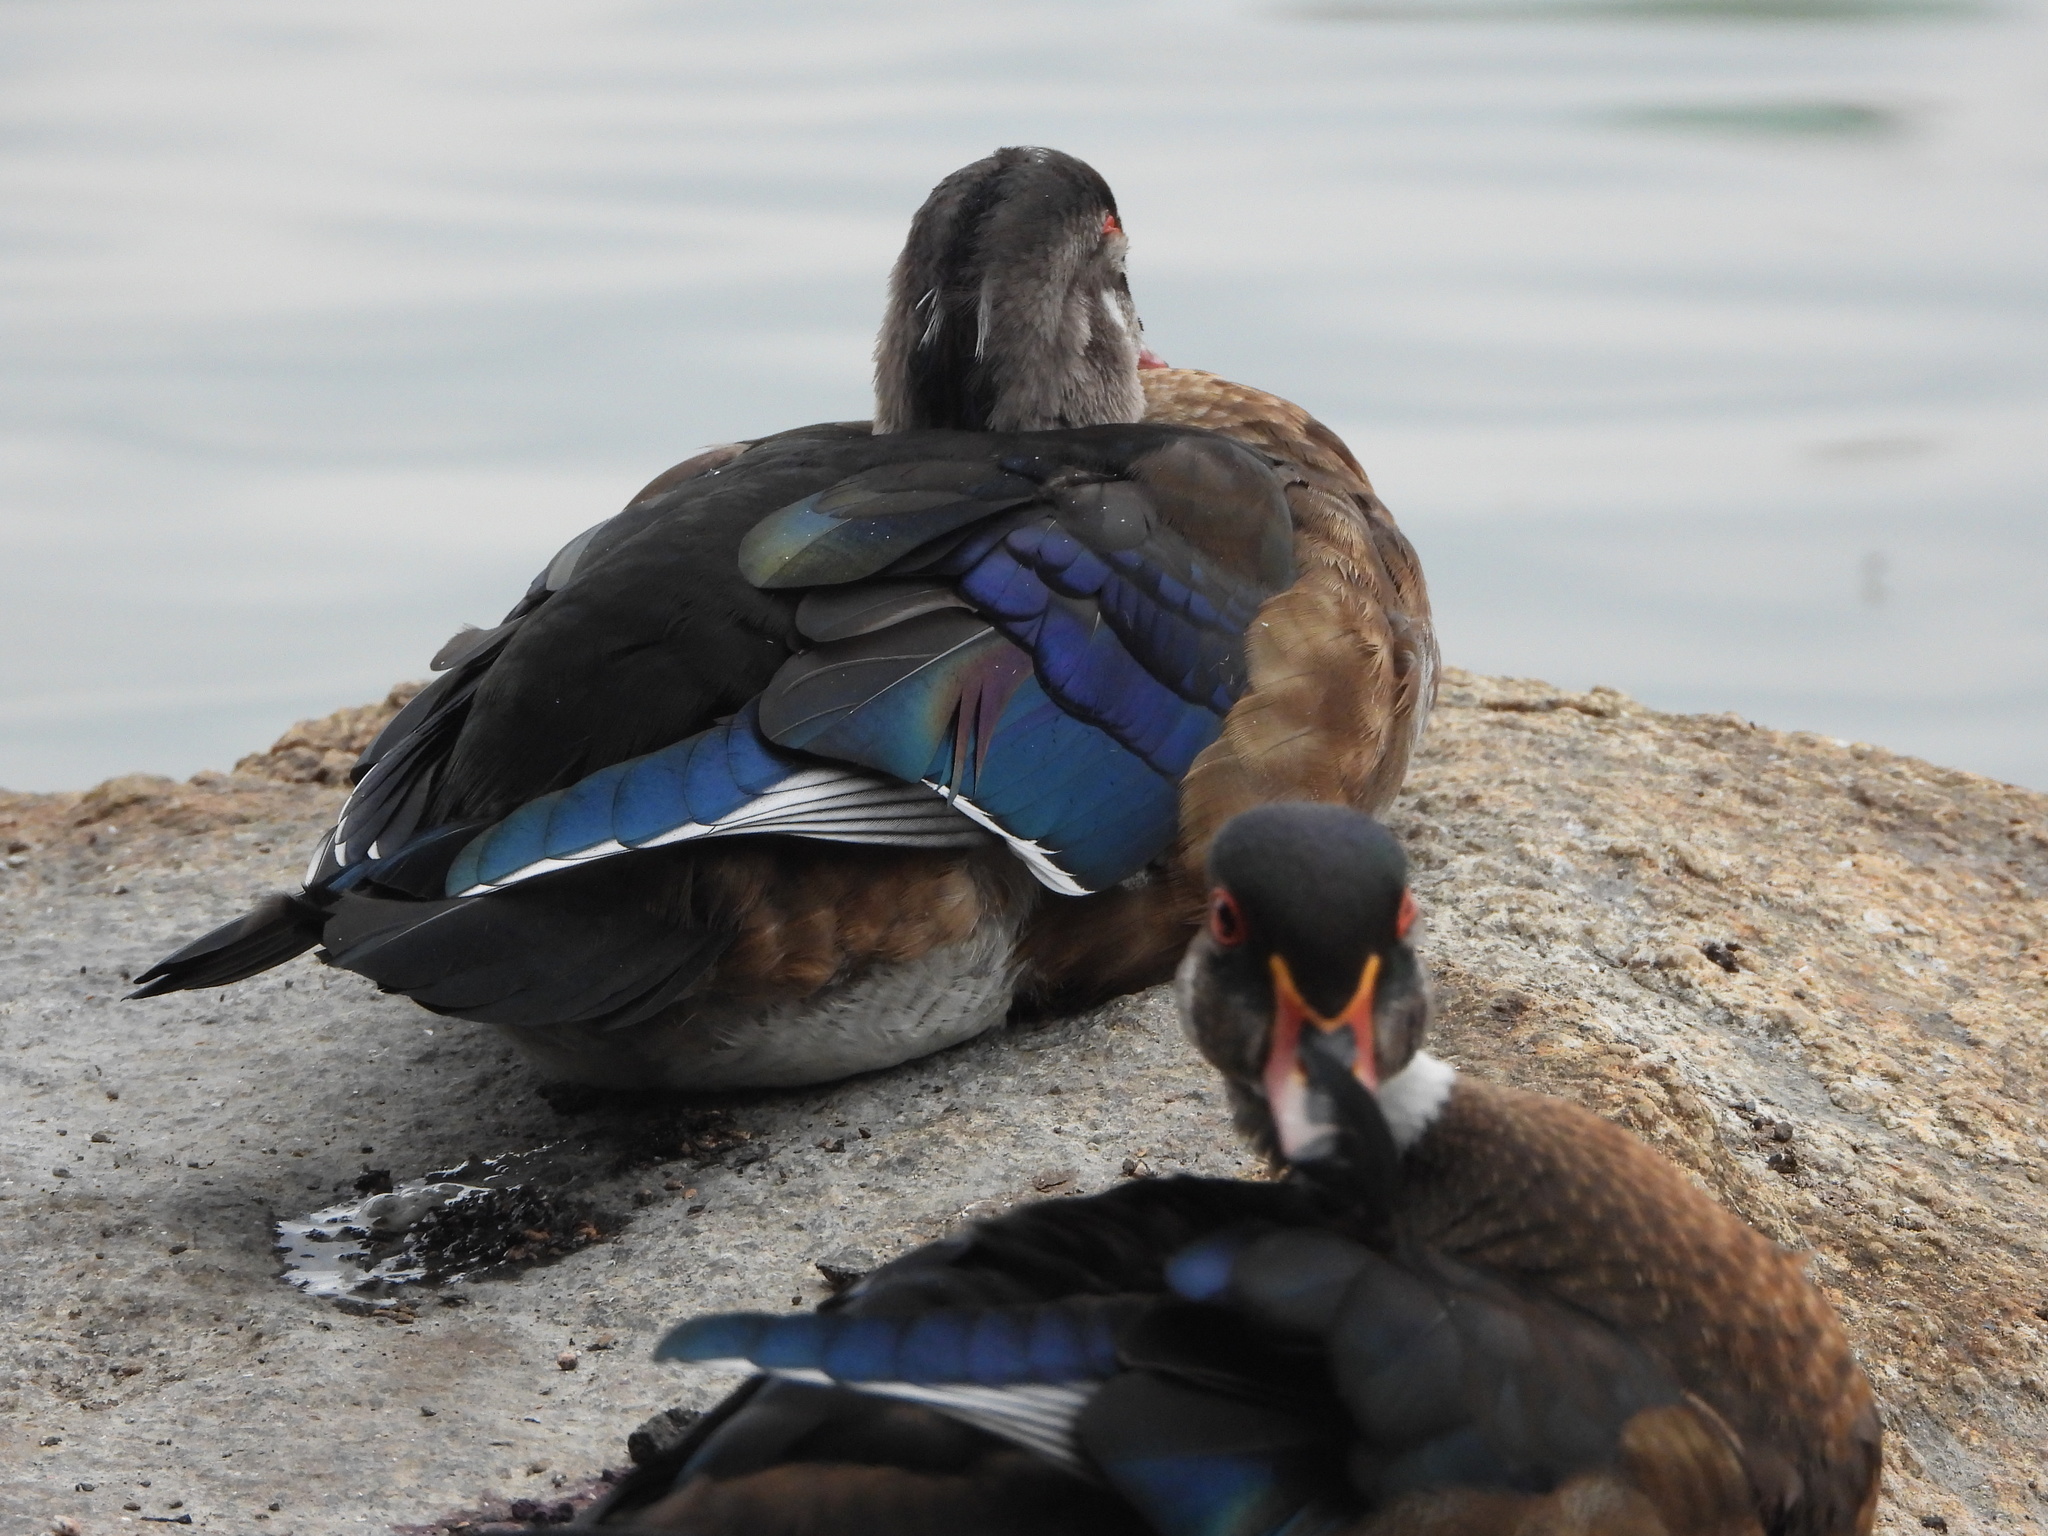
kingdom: Animalia
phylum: Chordata
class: Aves
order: Anseriformes
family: Anatidae
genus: Aix
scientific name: Aix sponsa
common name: Wood duck
